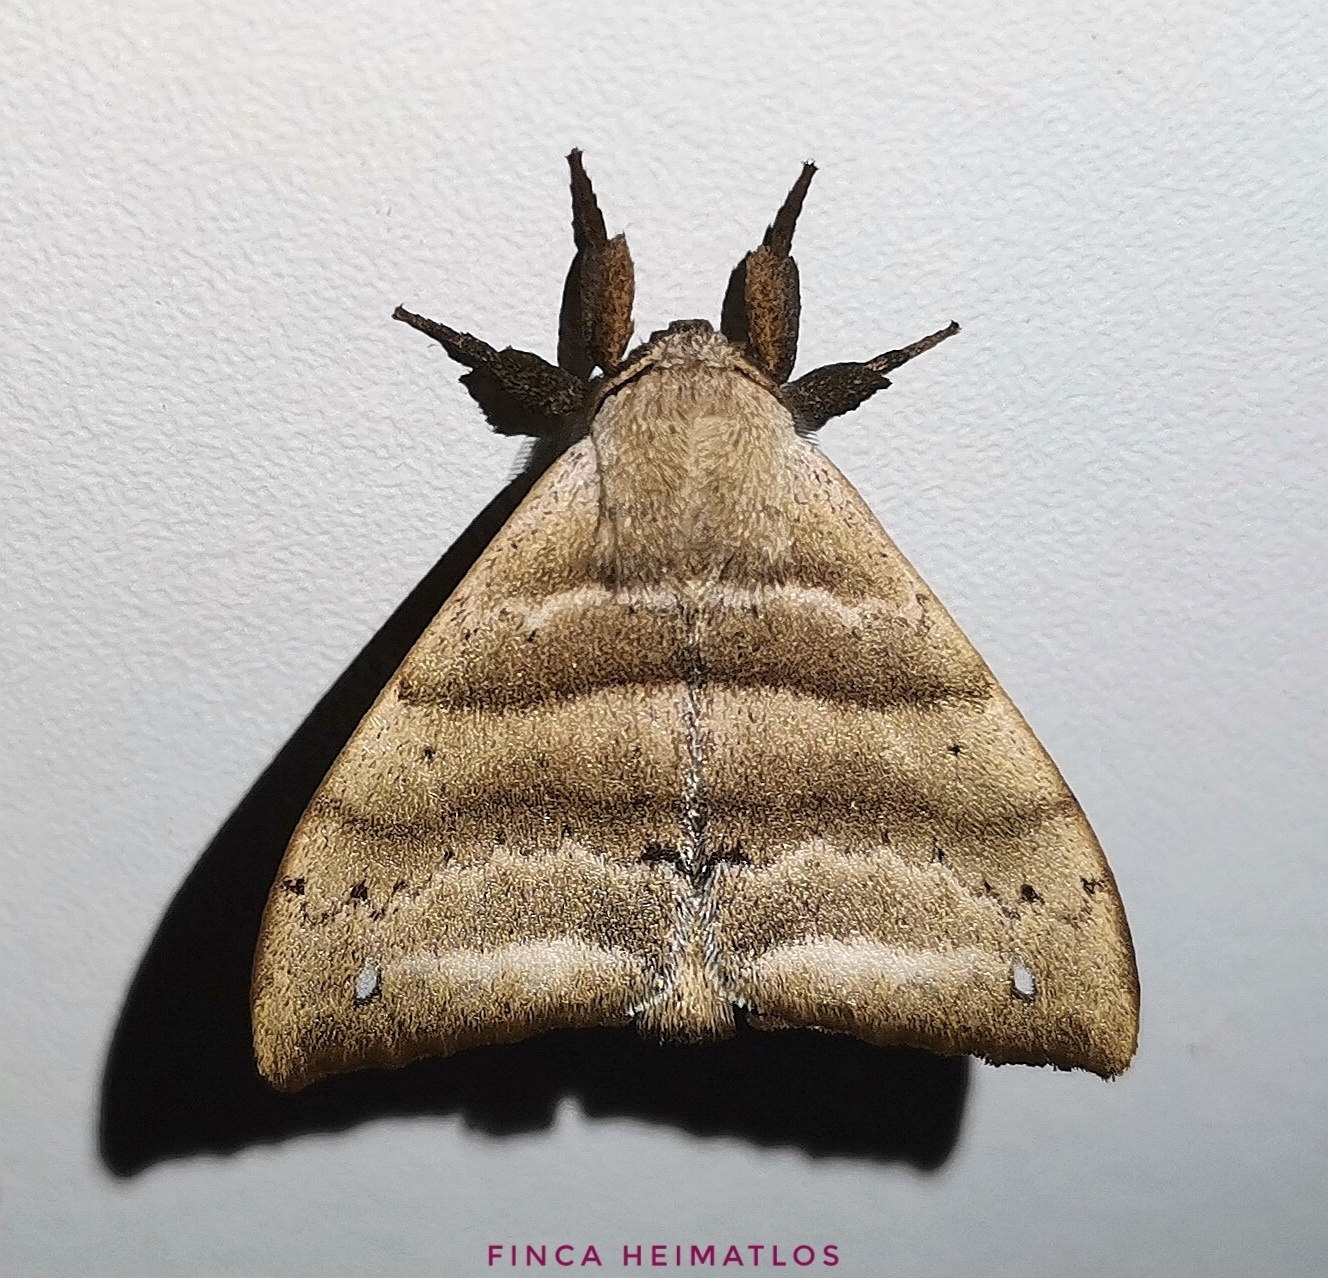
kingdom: Animalia
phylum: Arthropoda
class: Insecta
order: Lepidoptera
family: Apatelodidae
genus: Falcatelodes
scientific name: Falcatelodes anava
